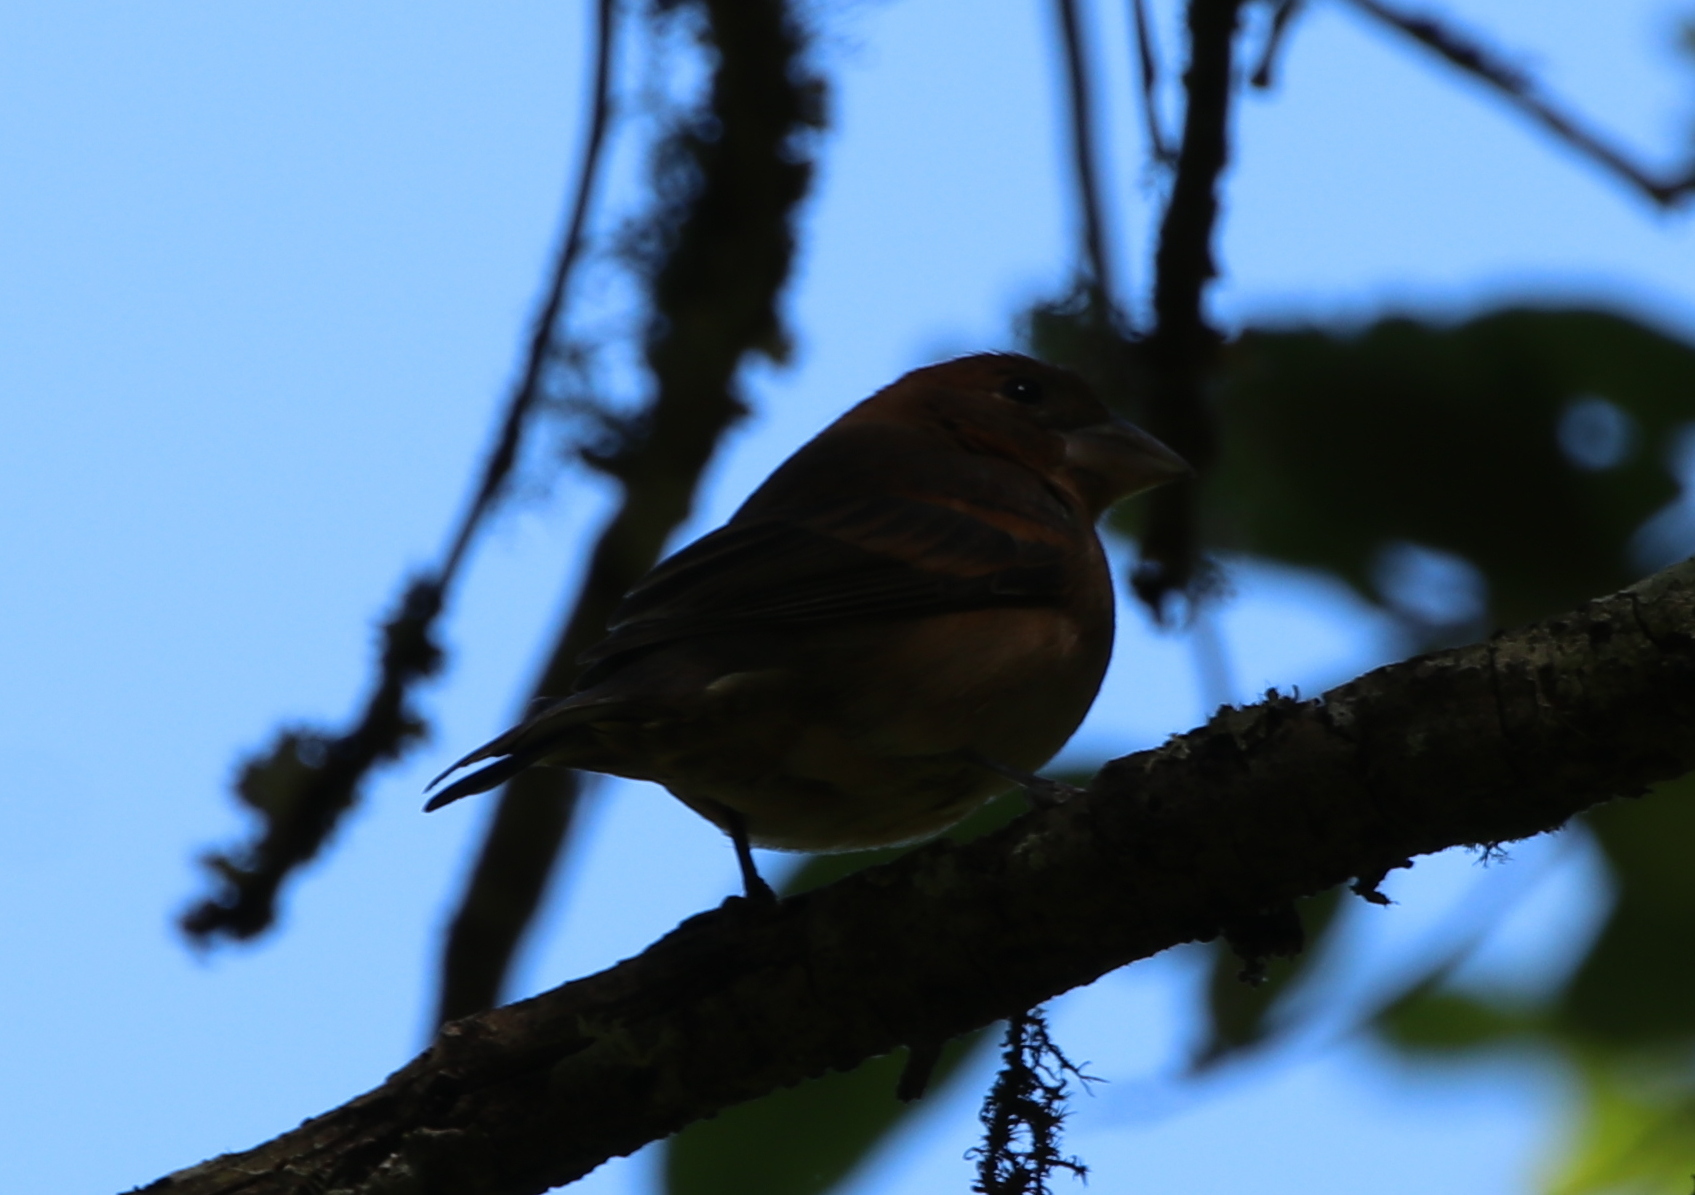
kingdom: Animalia
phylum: Chordata
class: Aves
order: Passeriformes
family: Cardinalidae
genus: Passerina
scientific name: Passerina caerulea
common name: Blue grosbeak
